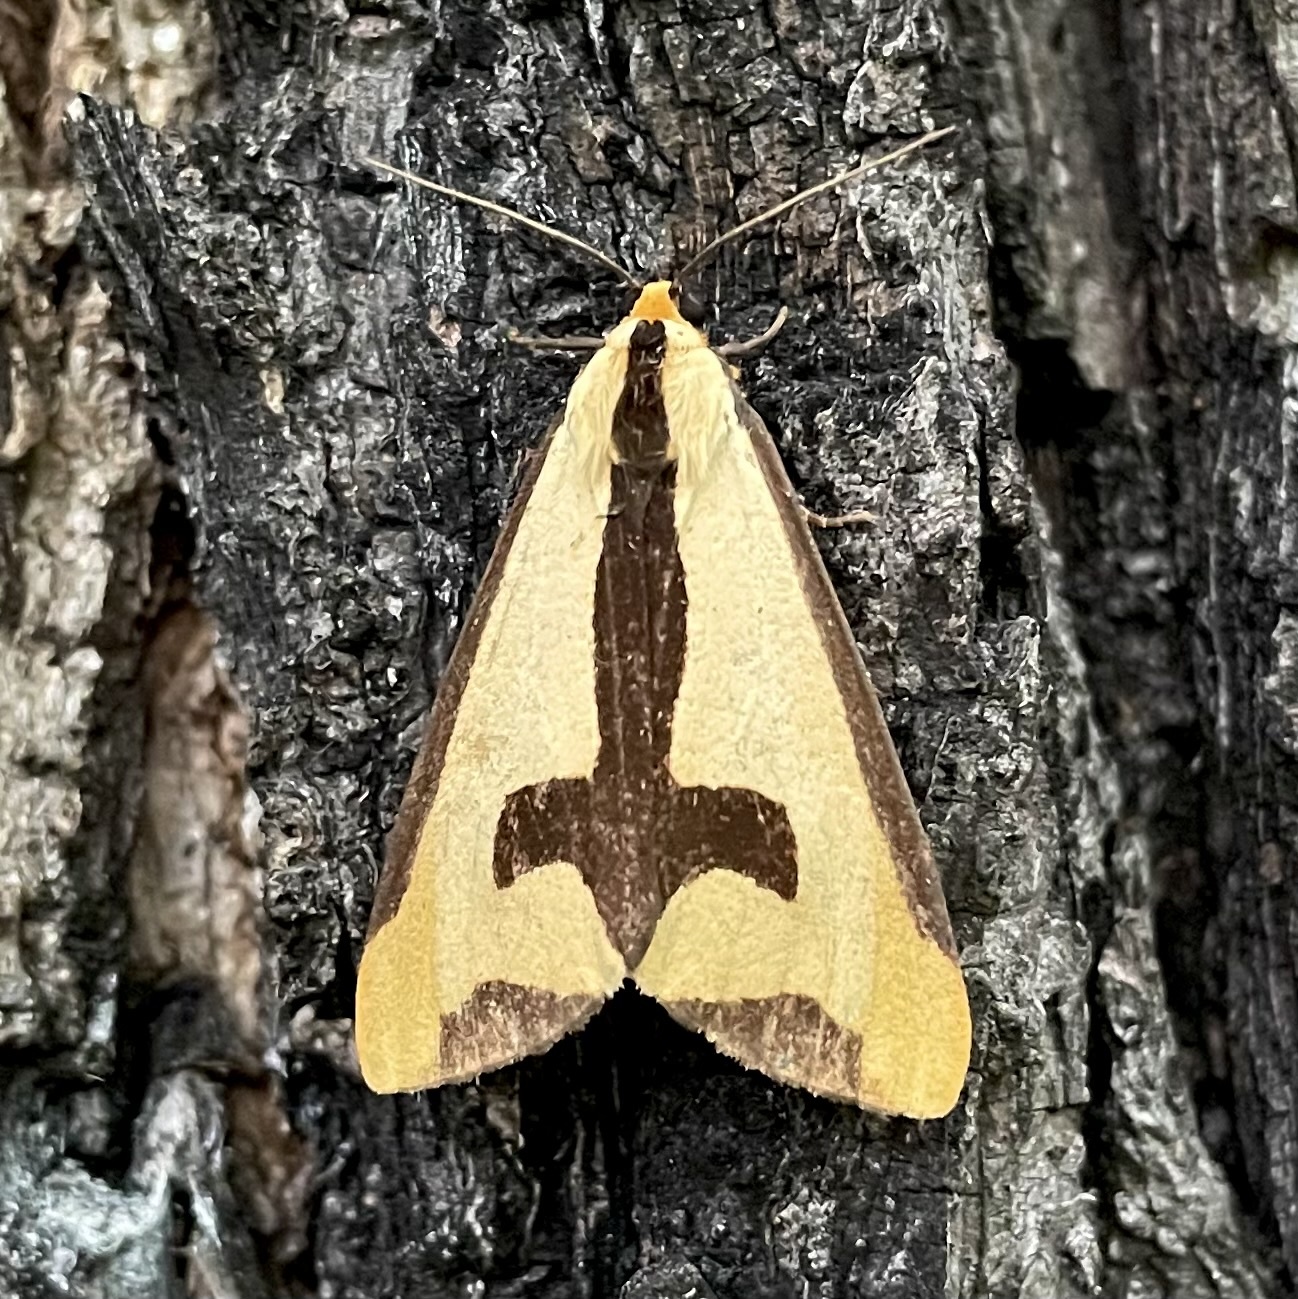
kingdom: Animalia
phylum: Arthropoda
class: Insecta
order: Lepidoptera
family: Erebidae
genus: Haploa
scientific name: Haploa clymene
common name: Clymene moth
